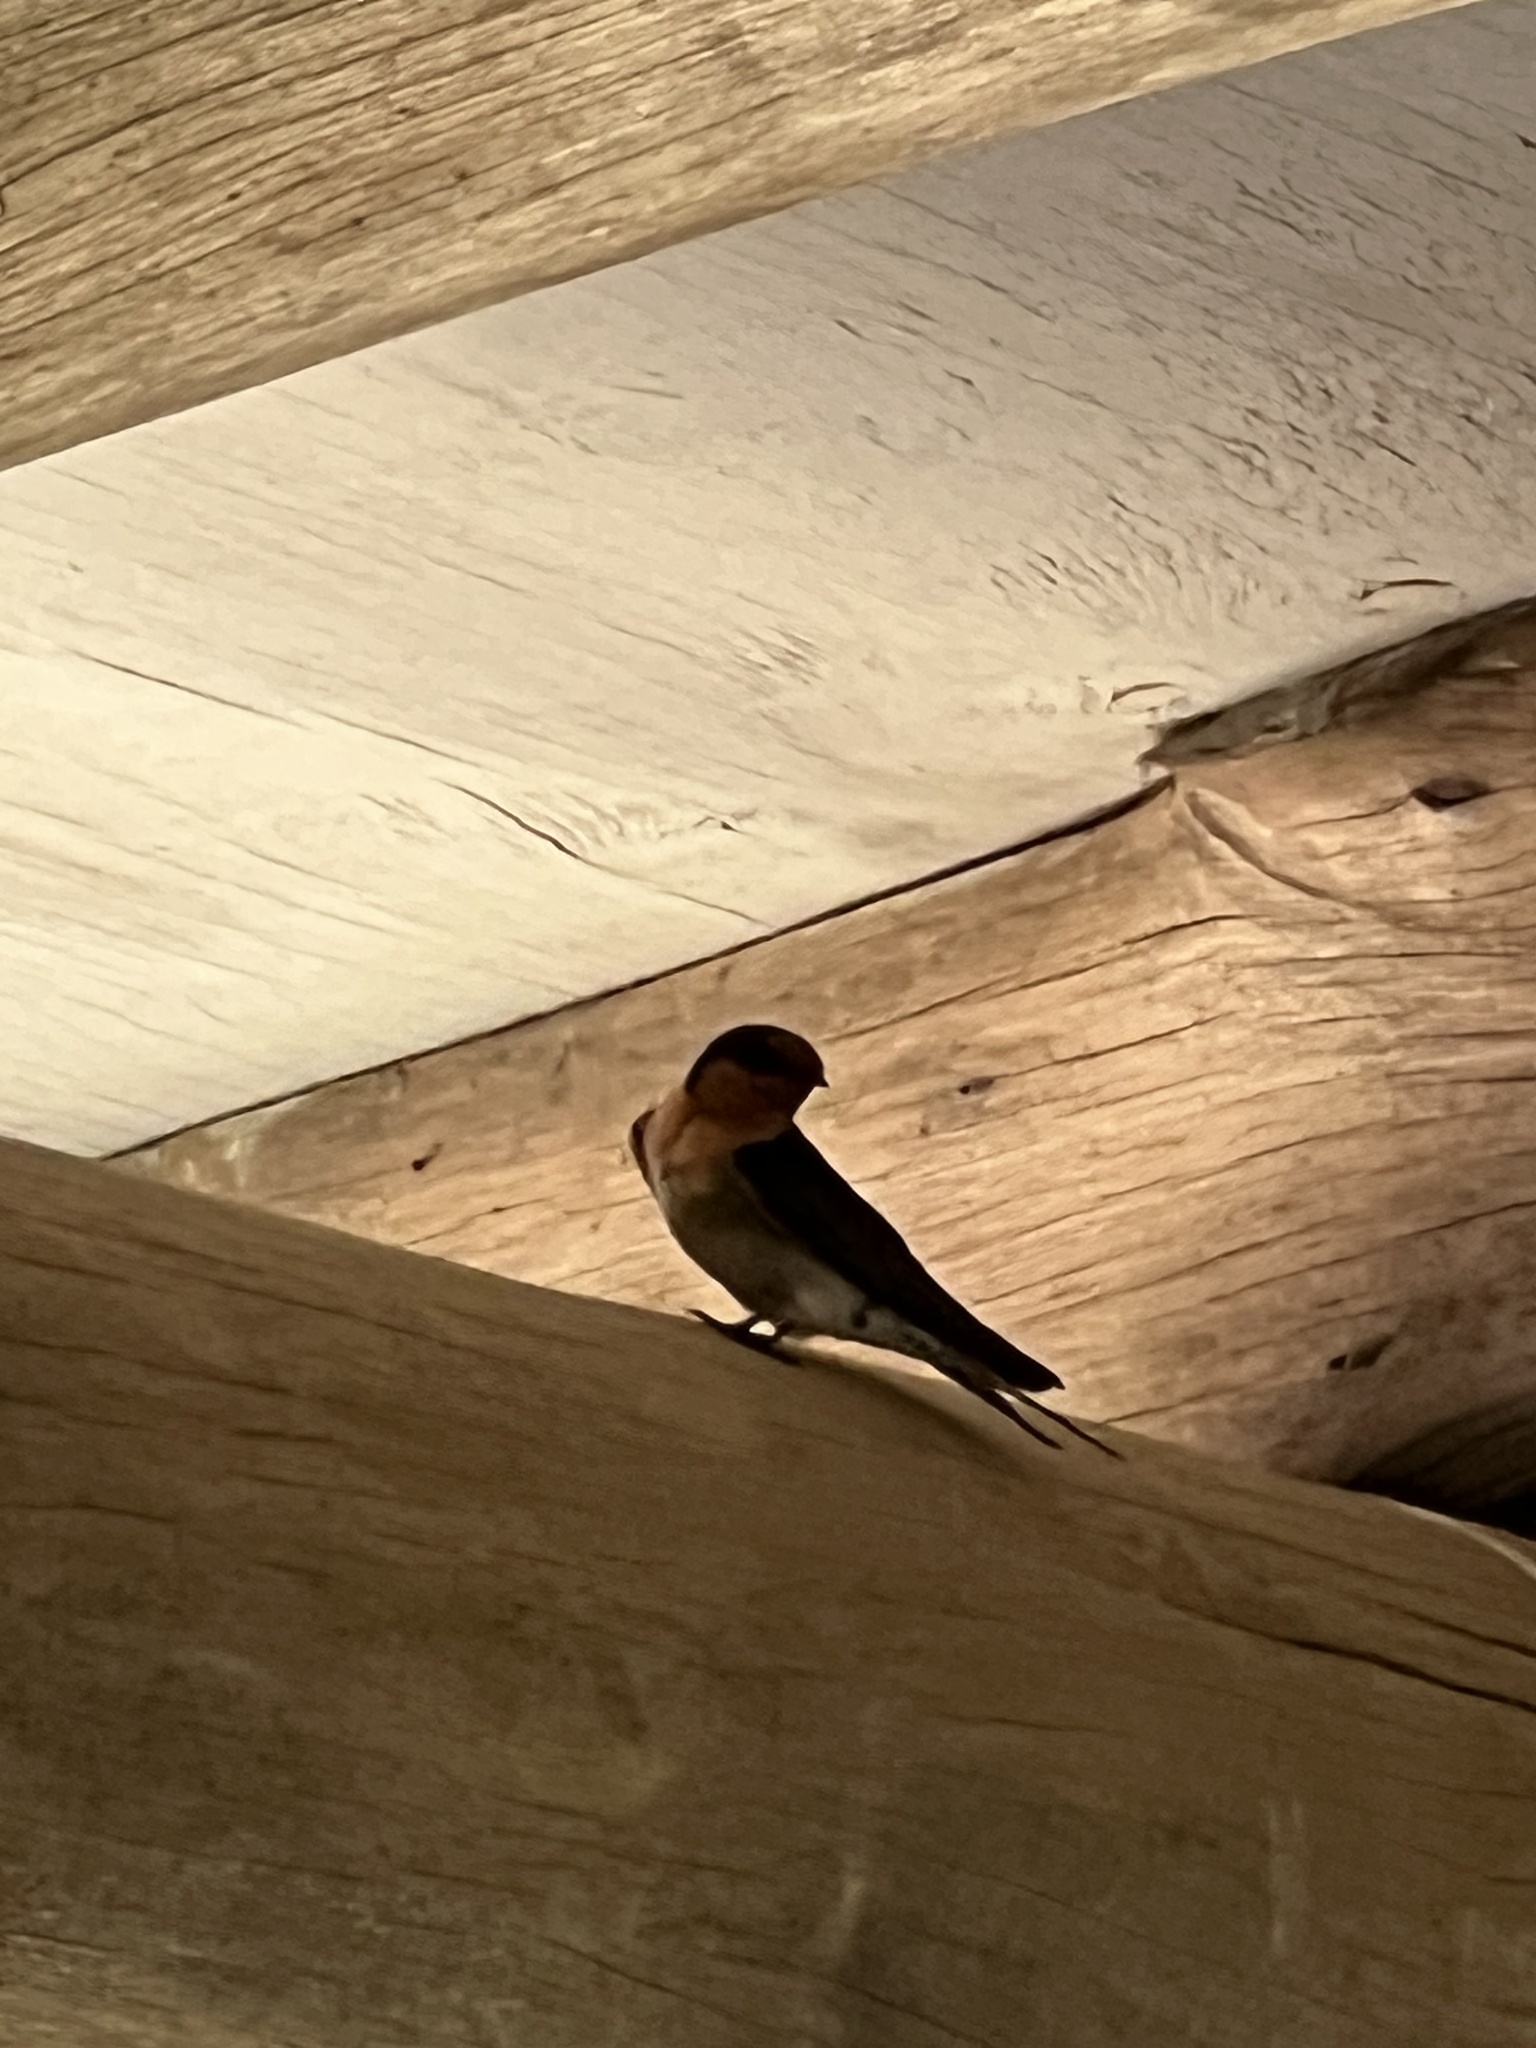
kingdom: Animalia
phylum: Chordata
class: Aves
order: Passeriformes
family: Hirundinidae
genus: Hirundo
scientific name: Hirundo neoxena
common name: Welcome swallow
